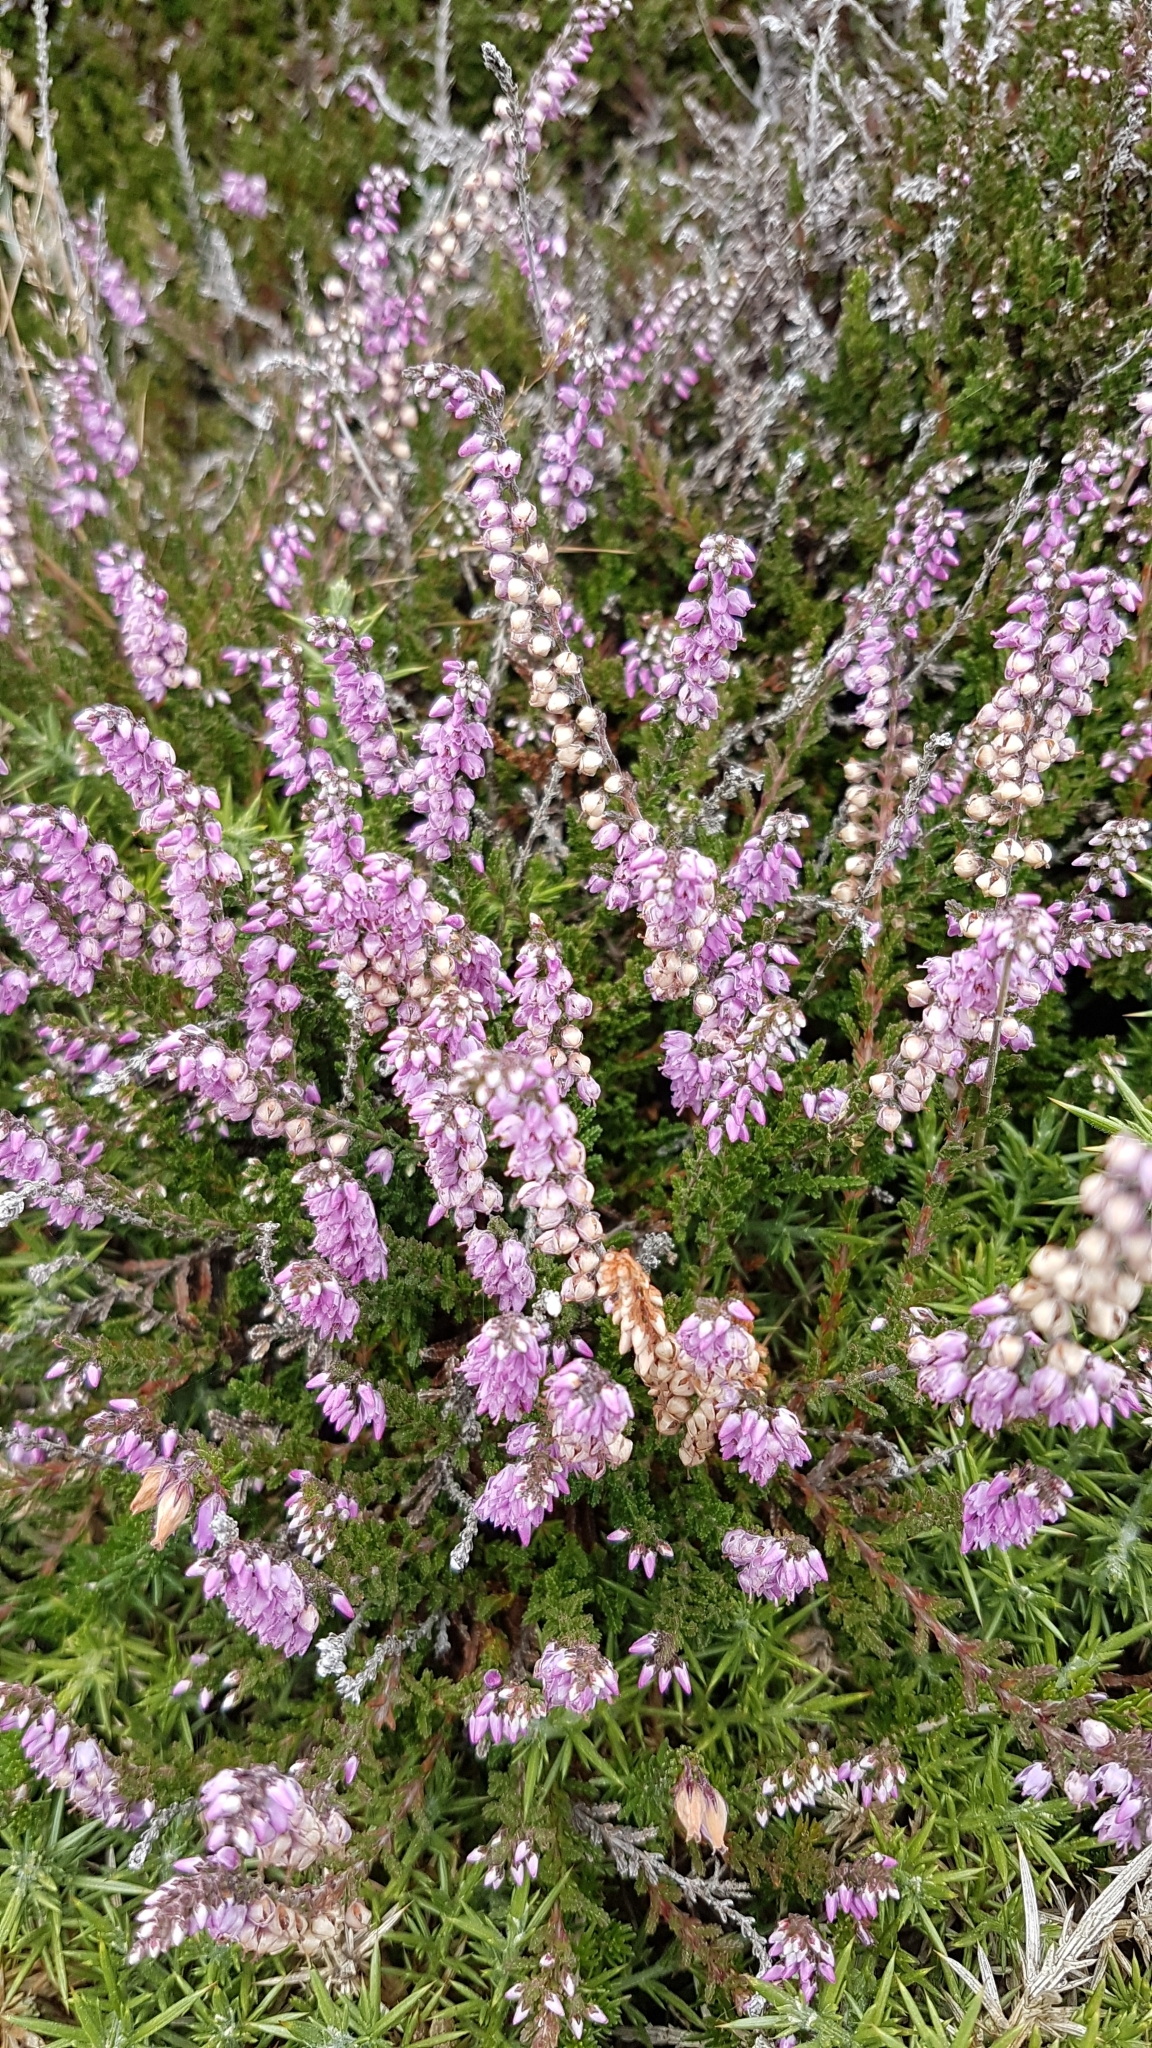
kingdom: Plantae
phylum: Tracheophyta
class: Magnoliopsida
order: Ericales
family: Ericaceae
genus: Calluna
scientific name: Calluna vulgaris
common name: Heather
